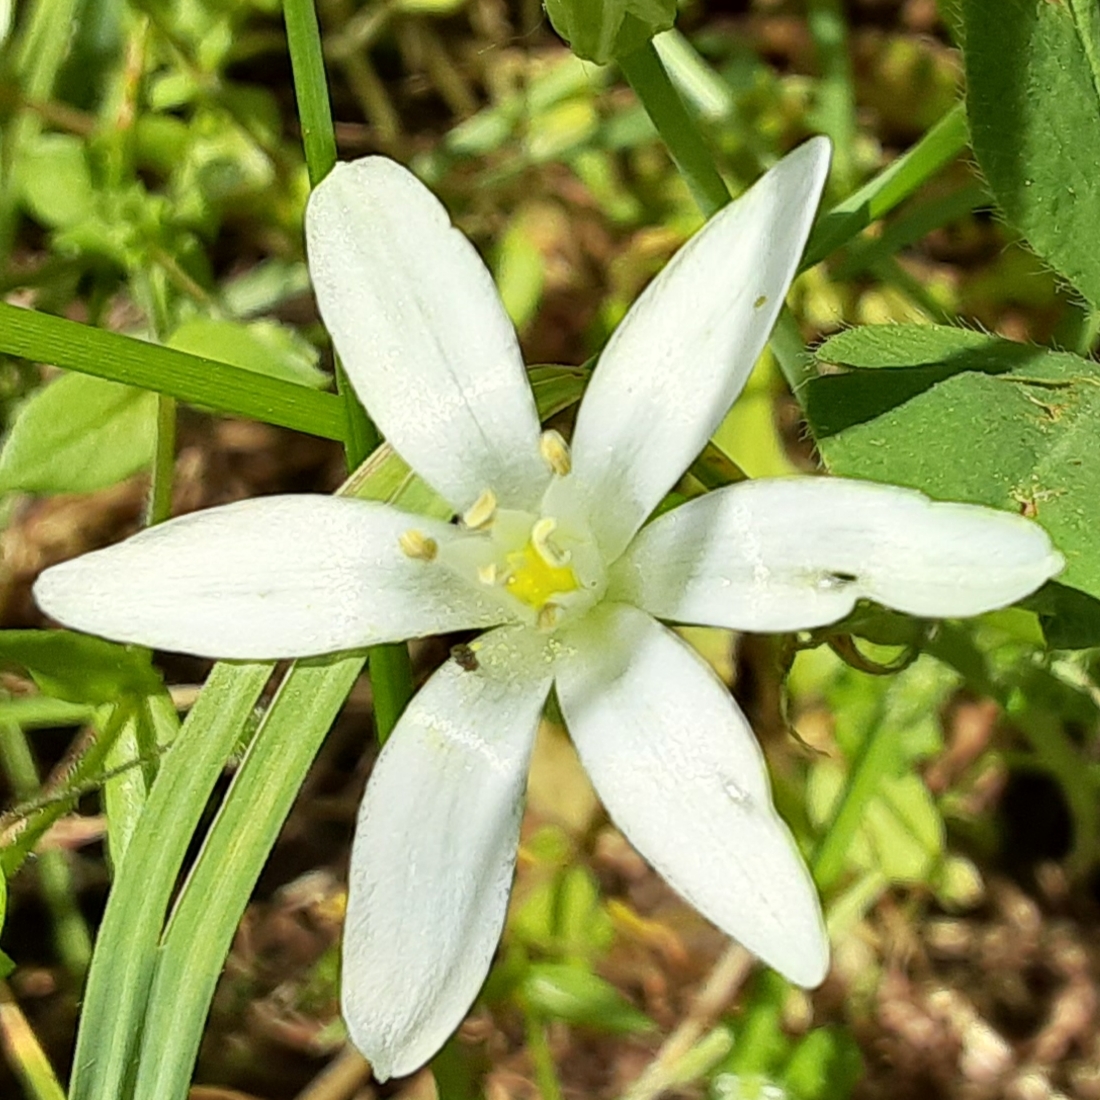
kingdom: Plantae
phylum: Tracheophyta
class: Liliopsida
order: Asparagales
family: Asparagaceae
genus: Ornithogalum
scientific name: Ornithogalum umbellatum
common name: Garden star-of-bethlehem
